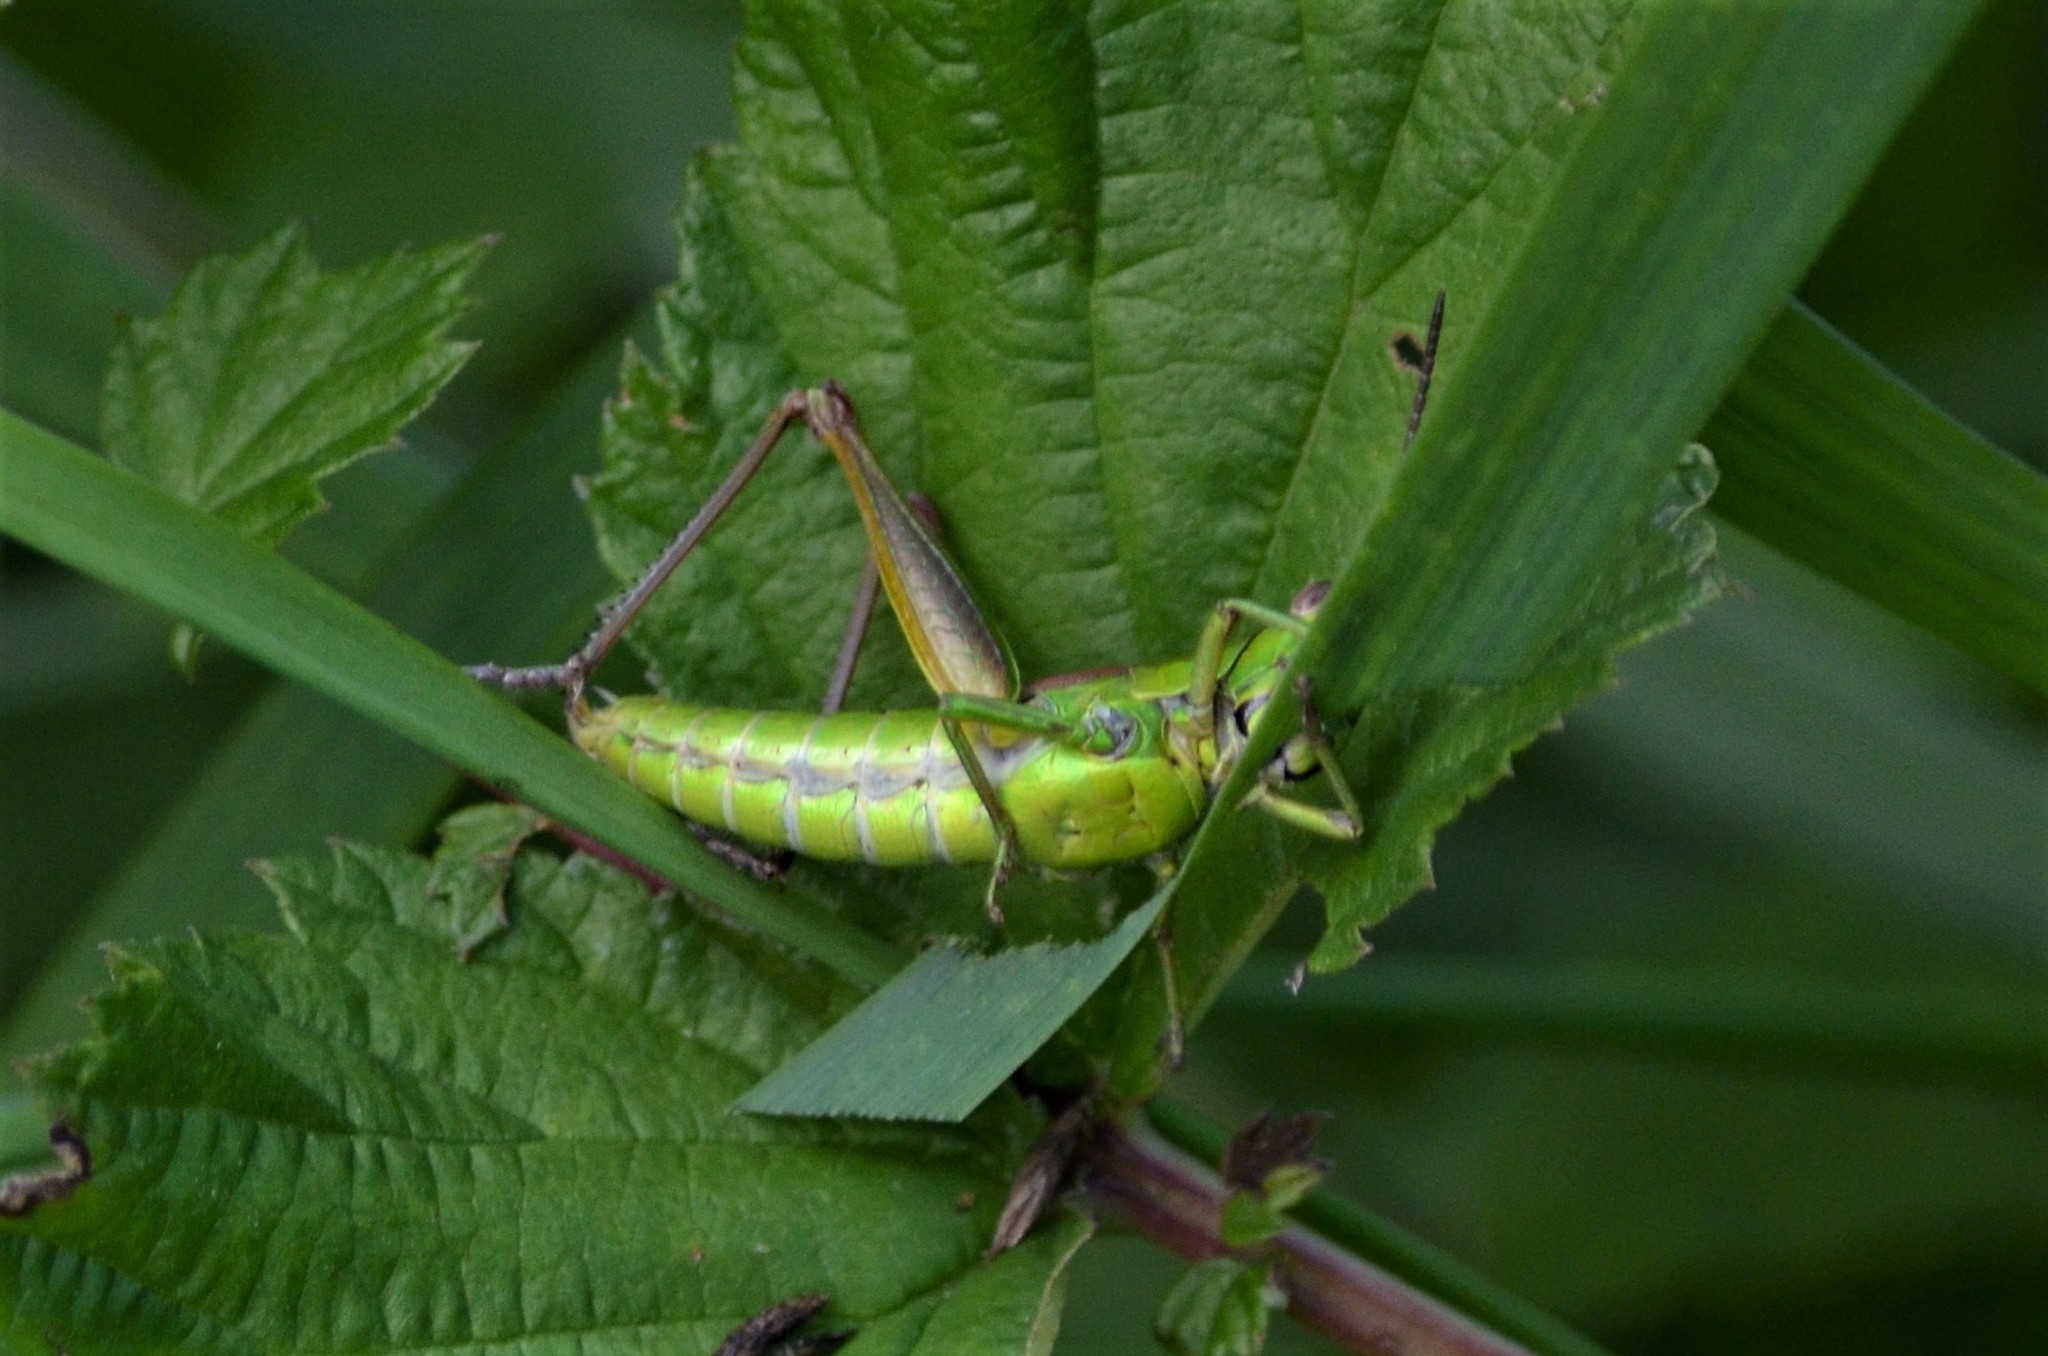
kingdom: Animalia
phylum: Arthropoda
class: Insecta
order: Orthoptera
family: Acrididae
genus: Euthystira
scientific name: Euthystira brachyptera
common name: Small gold grasshopper
